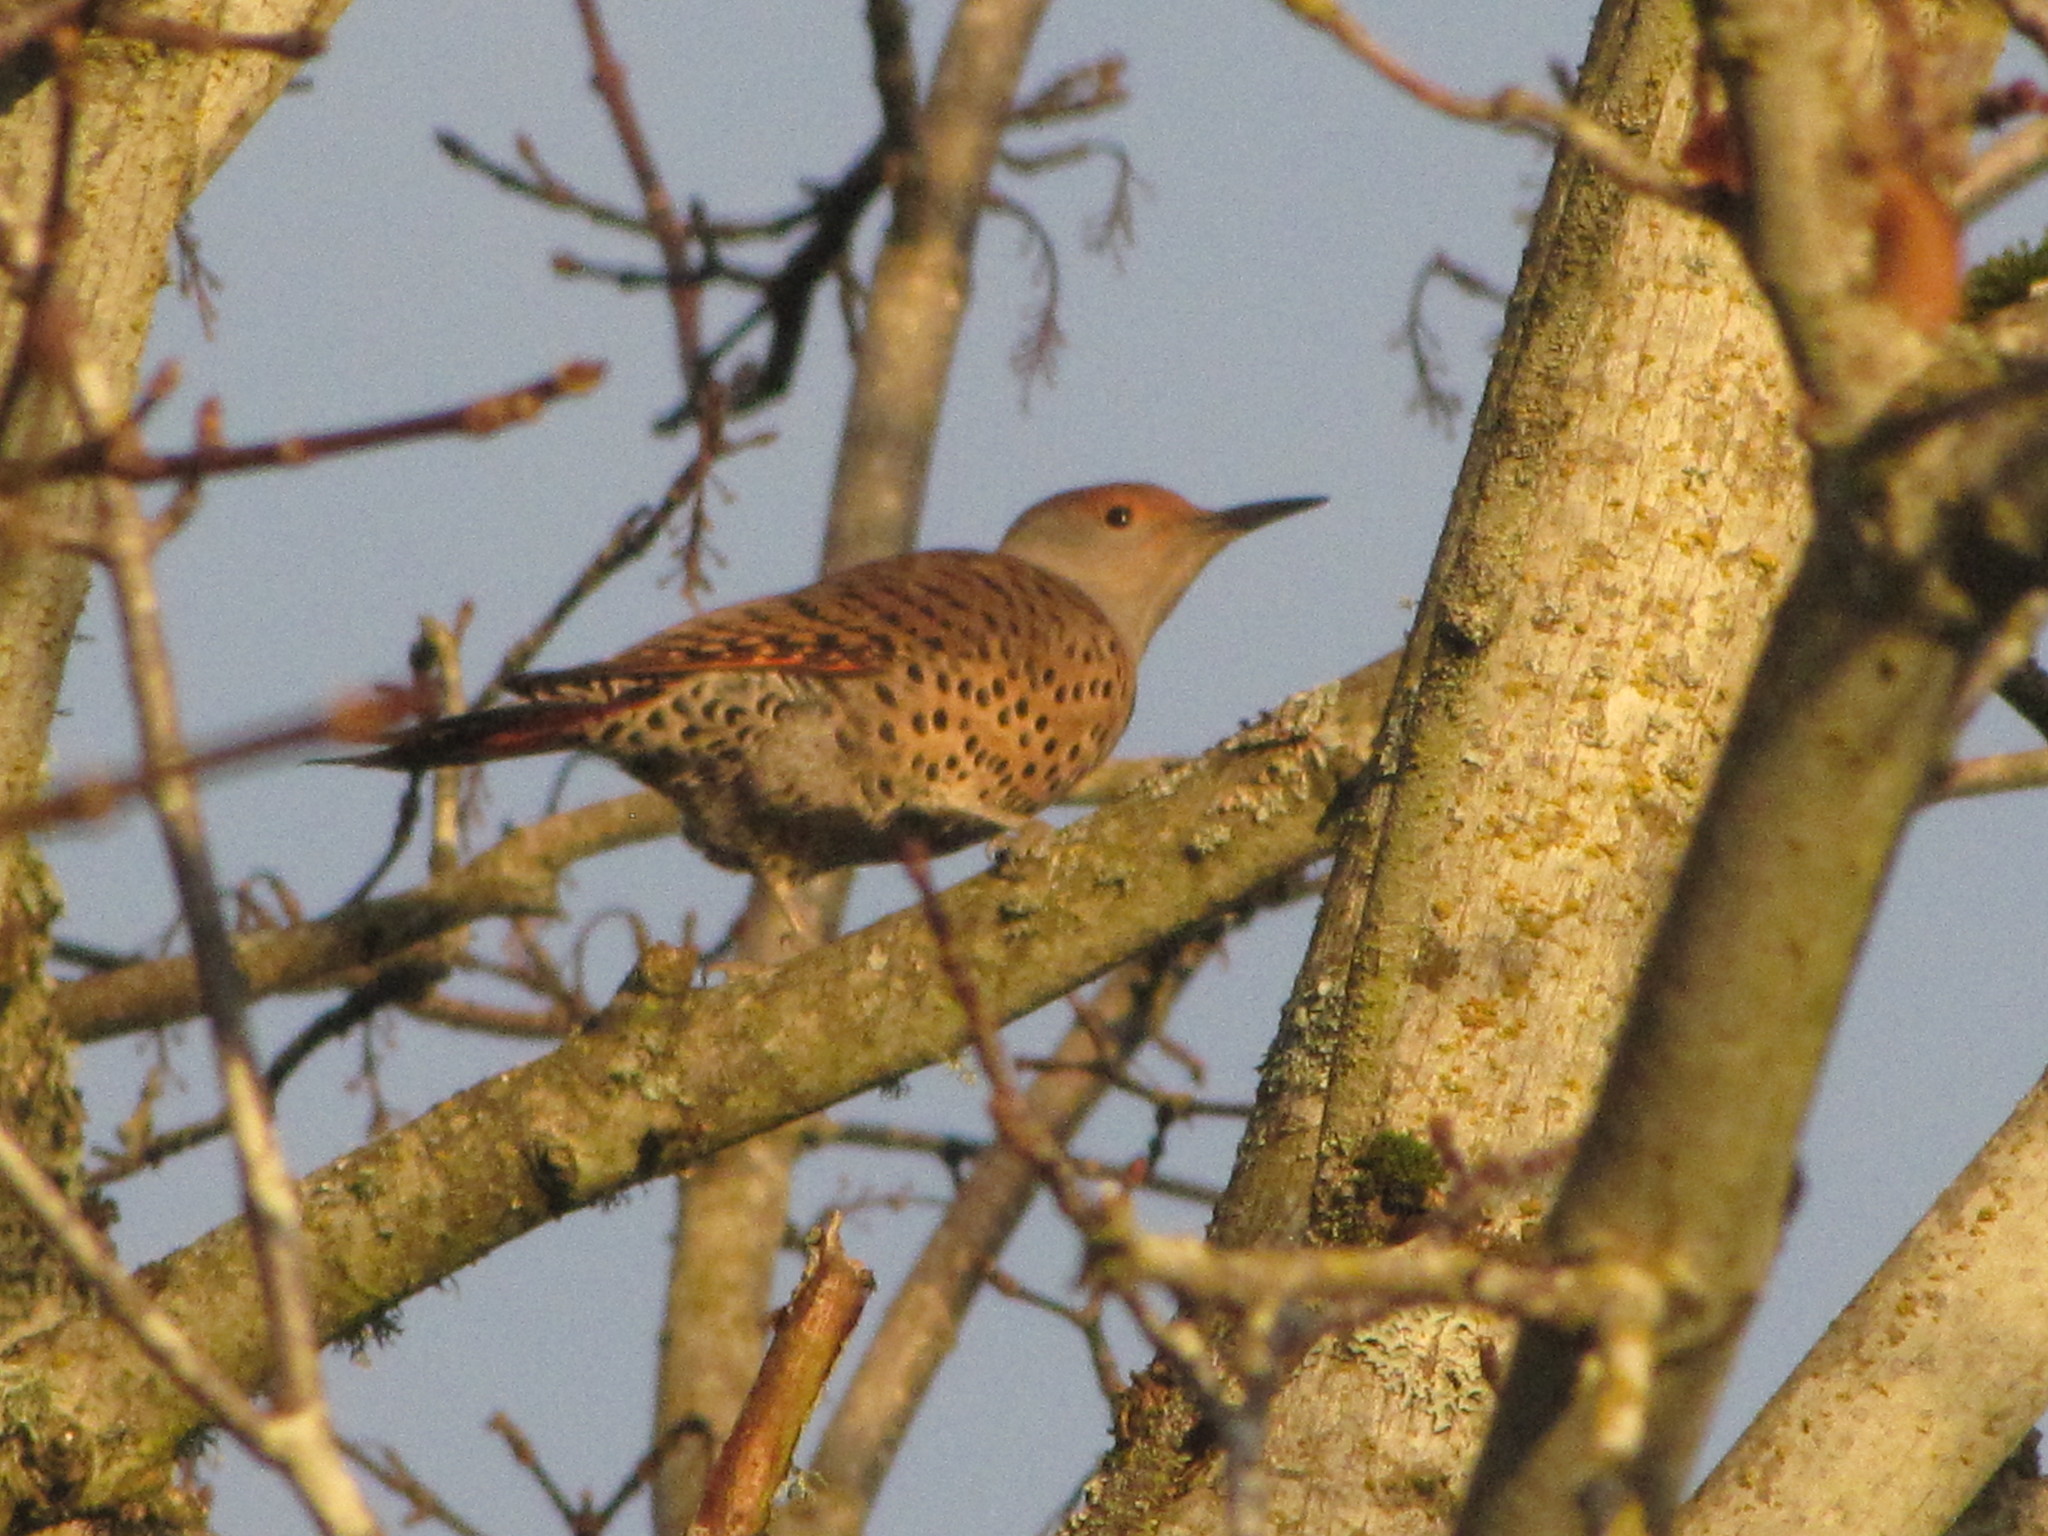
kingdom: Animalia
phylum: Chordata
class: Aves
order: Piciformes
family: Picidae
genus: Colaptes
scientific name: Colaptes auratus
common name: Northern flicker
